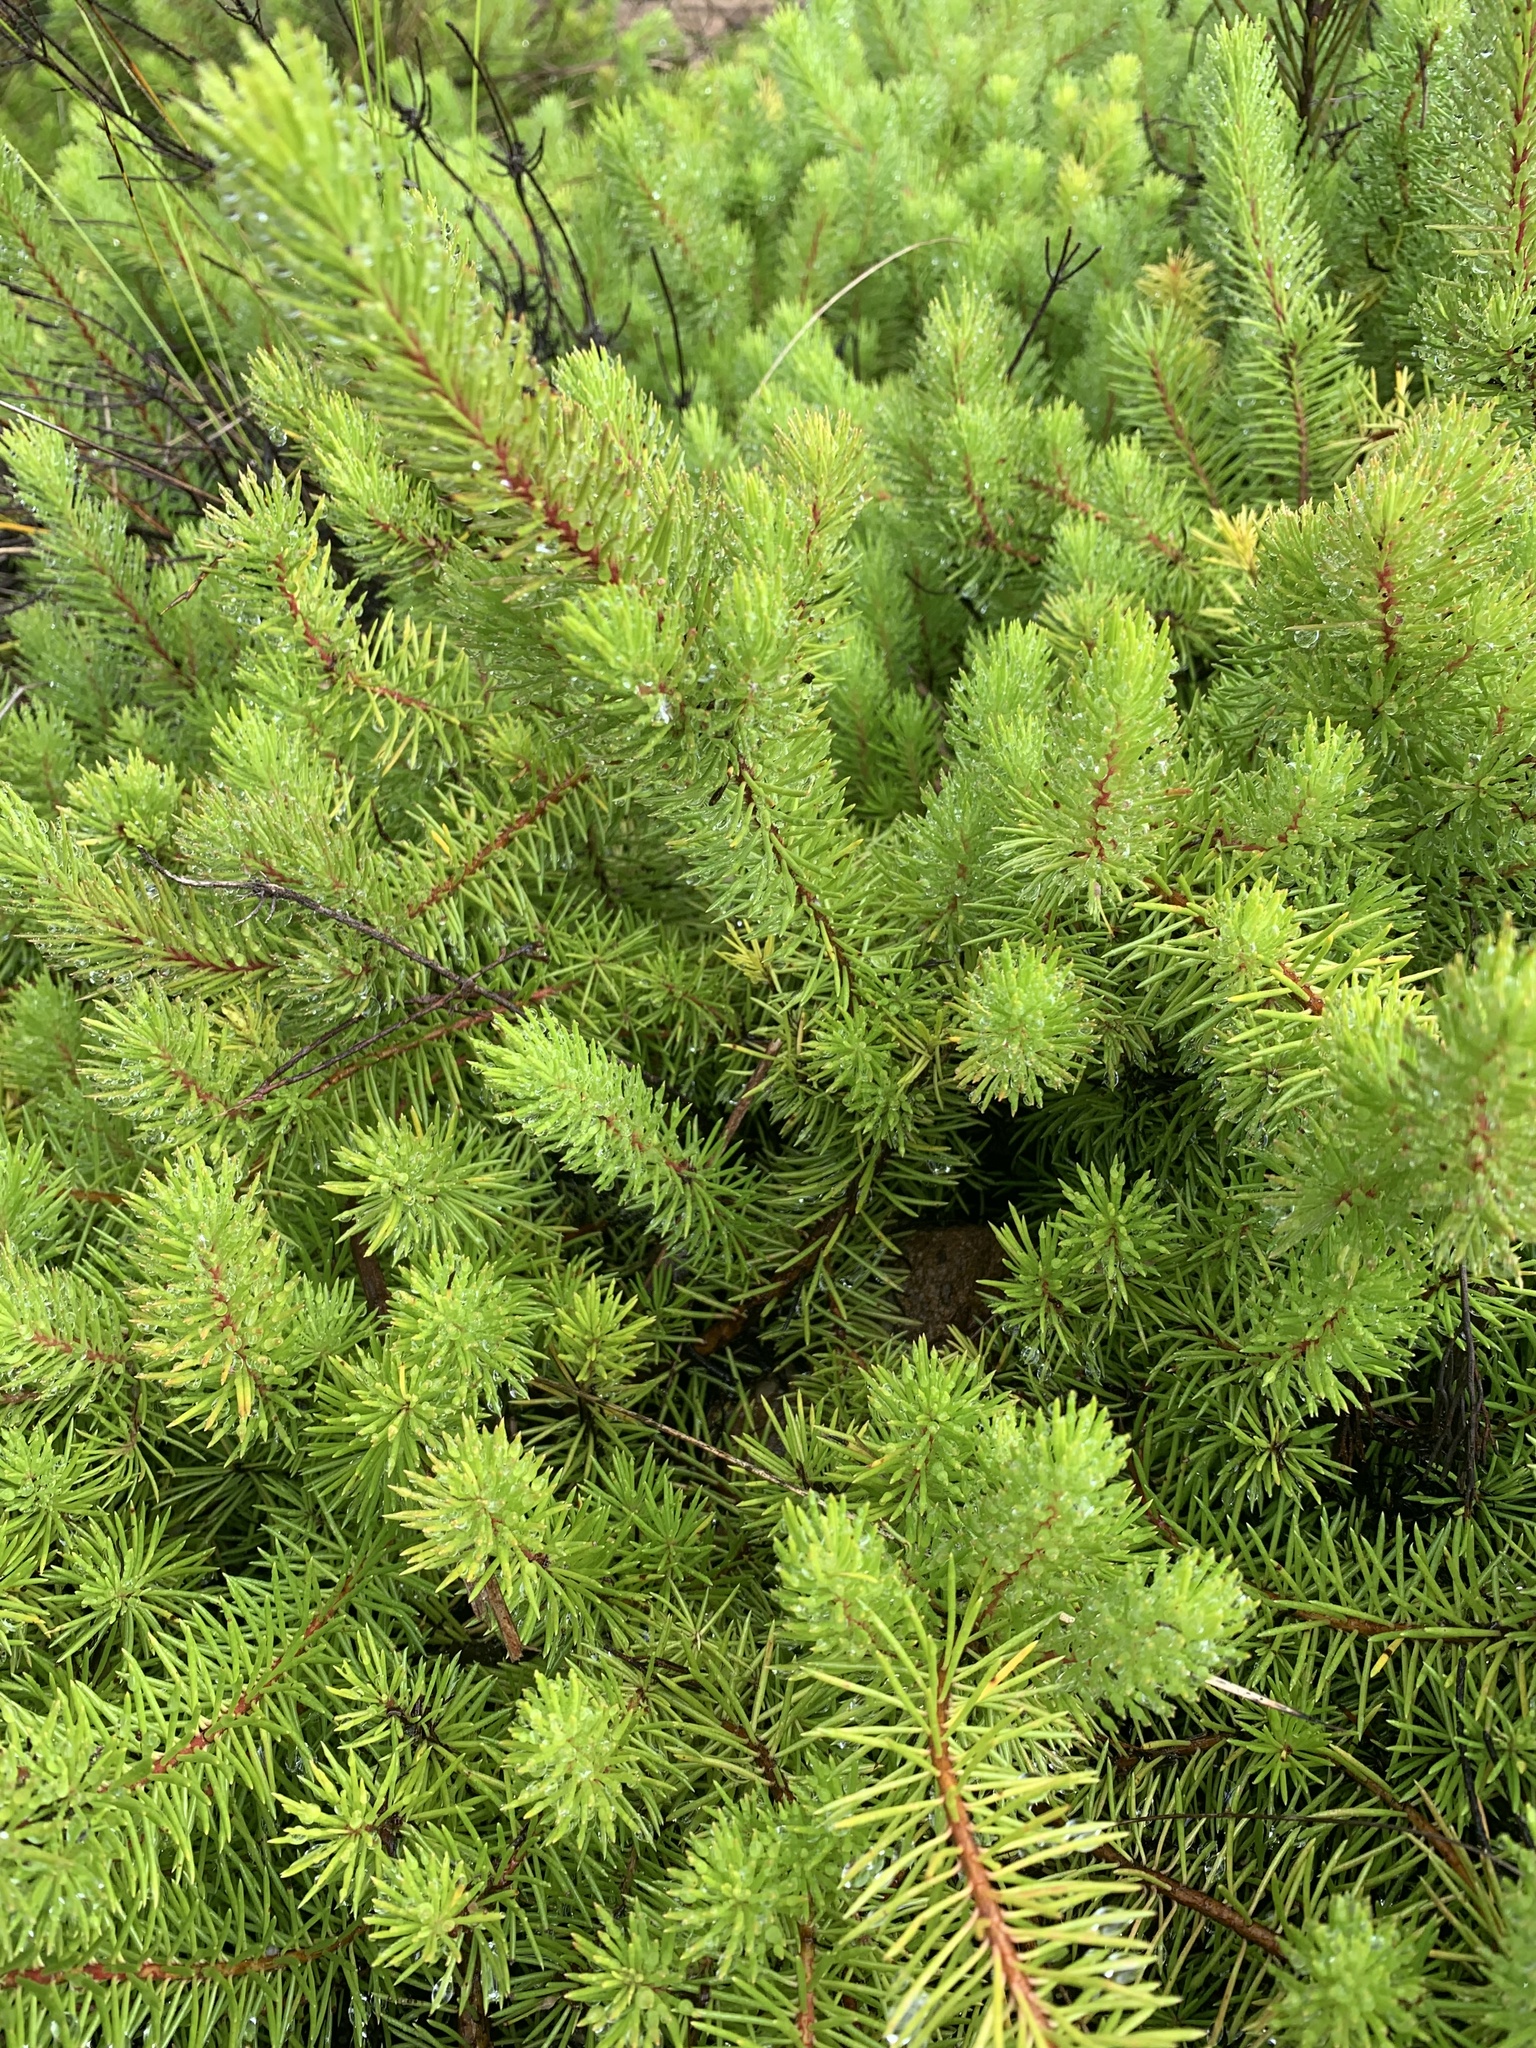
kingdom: Plantae
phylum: Tracheophyta
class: Magnoliopsida
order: Proteales
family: Proteaceae
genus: Persoonia
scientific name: Persoonia chamaepitys
